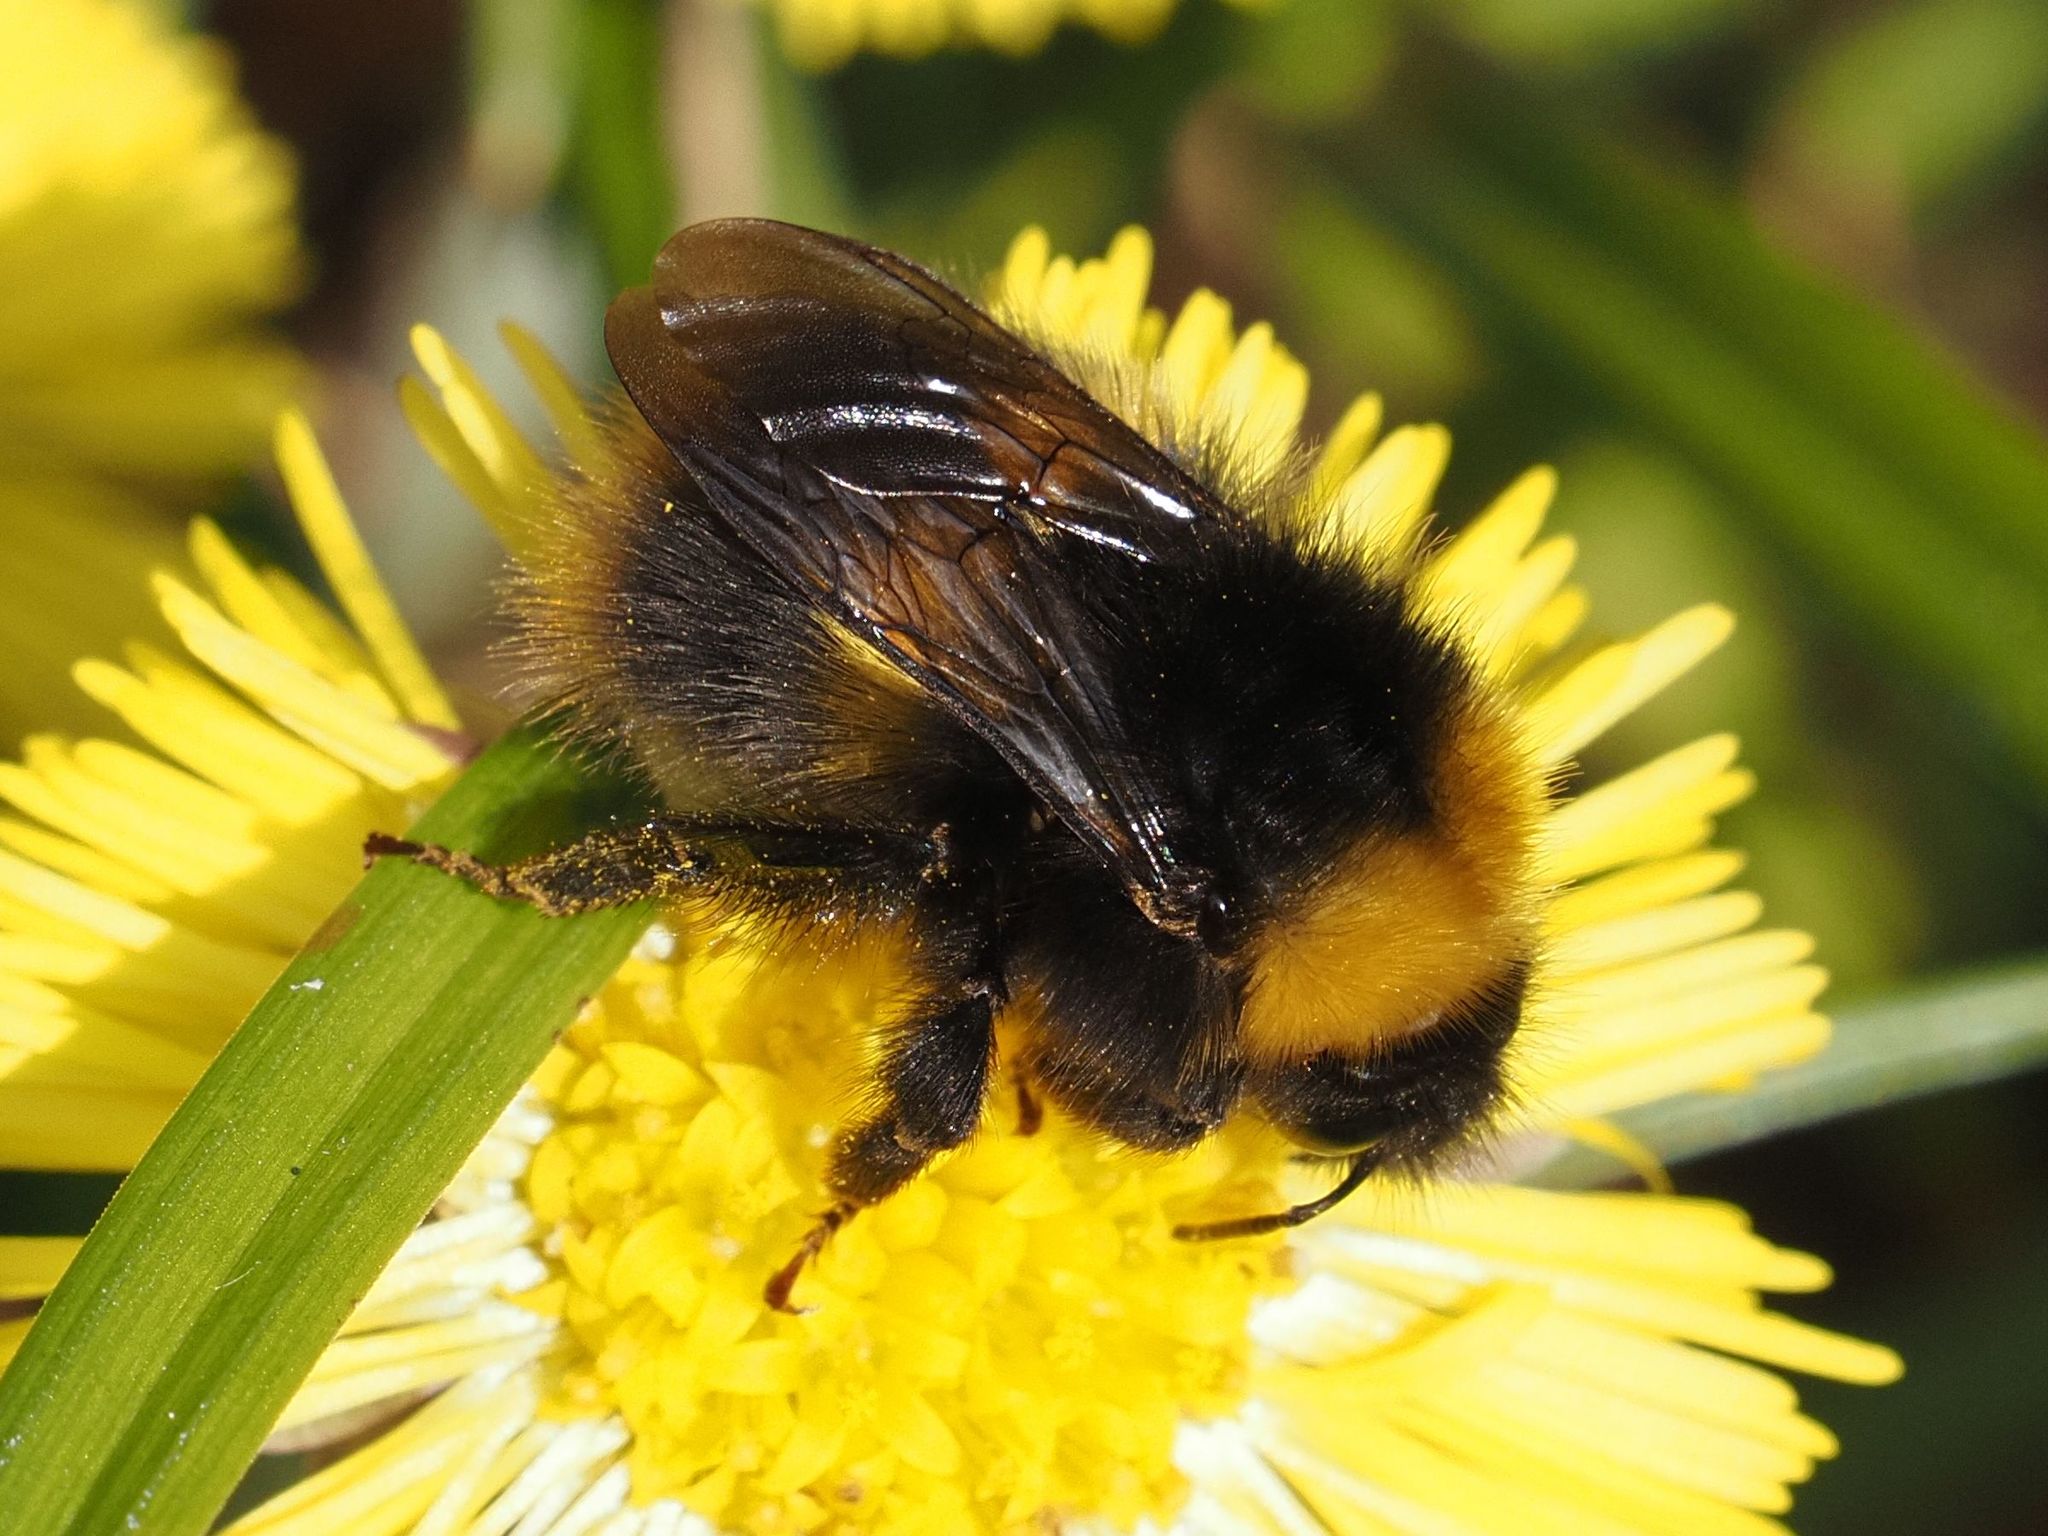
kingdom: Animalia
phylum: Arthropoda
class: Insecta
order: Hymenoptera
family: Apidae
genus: Bombus
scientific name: Bombus pratorum
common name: Early humble-bee
